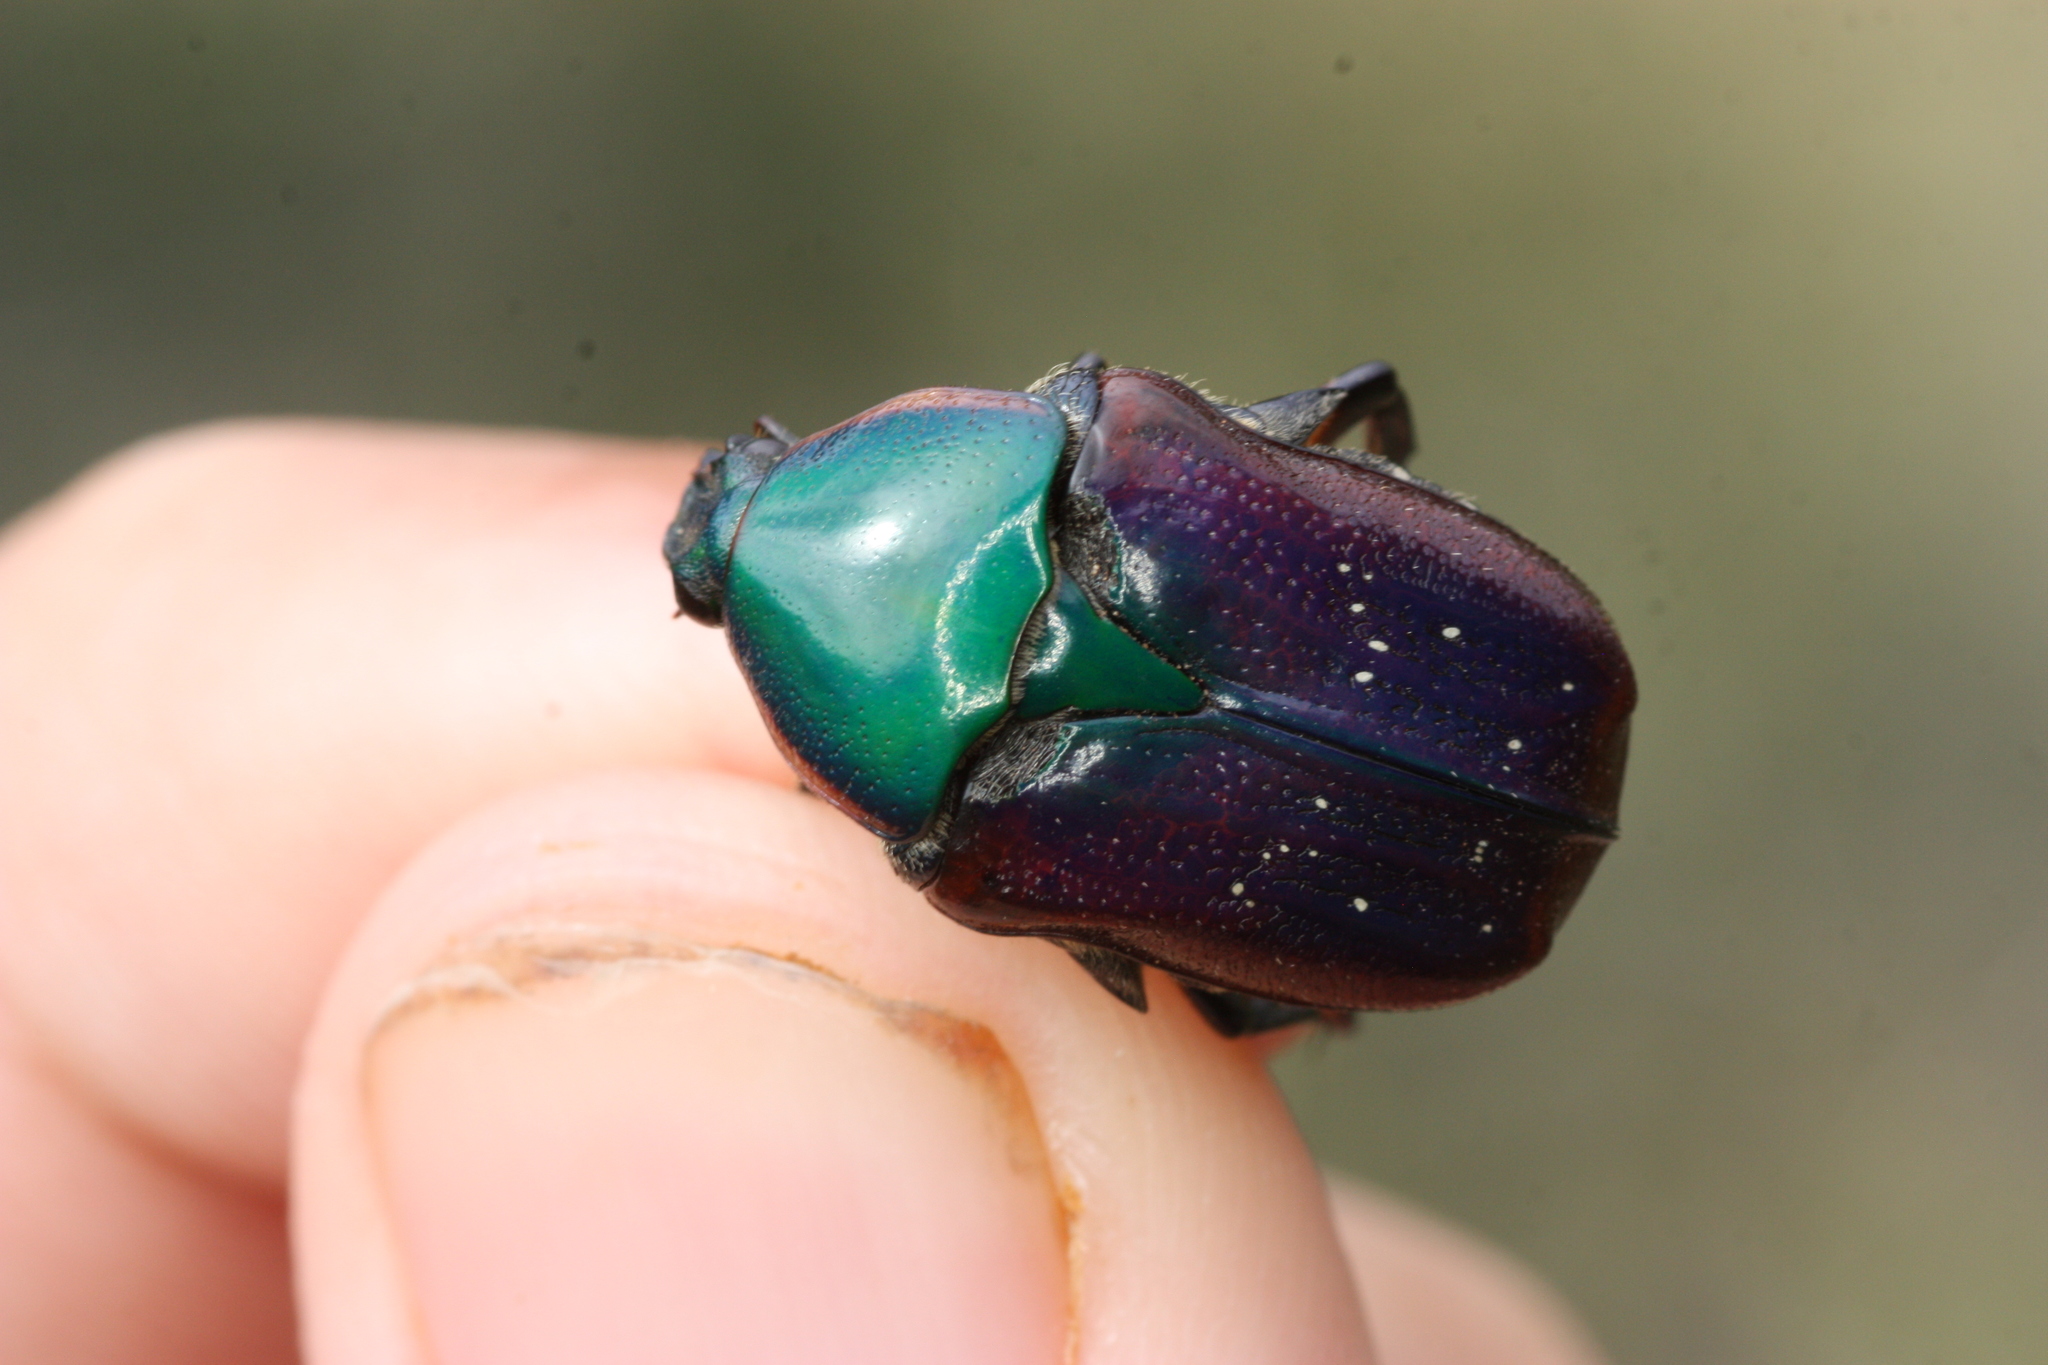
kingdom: Animalia
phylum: Arthropoda
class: Insecta
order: Coleoptera
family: Scarabaeidae
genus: Euphoria
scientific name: Euphoria fulgida
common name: Emerald euphoria
